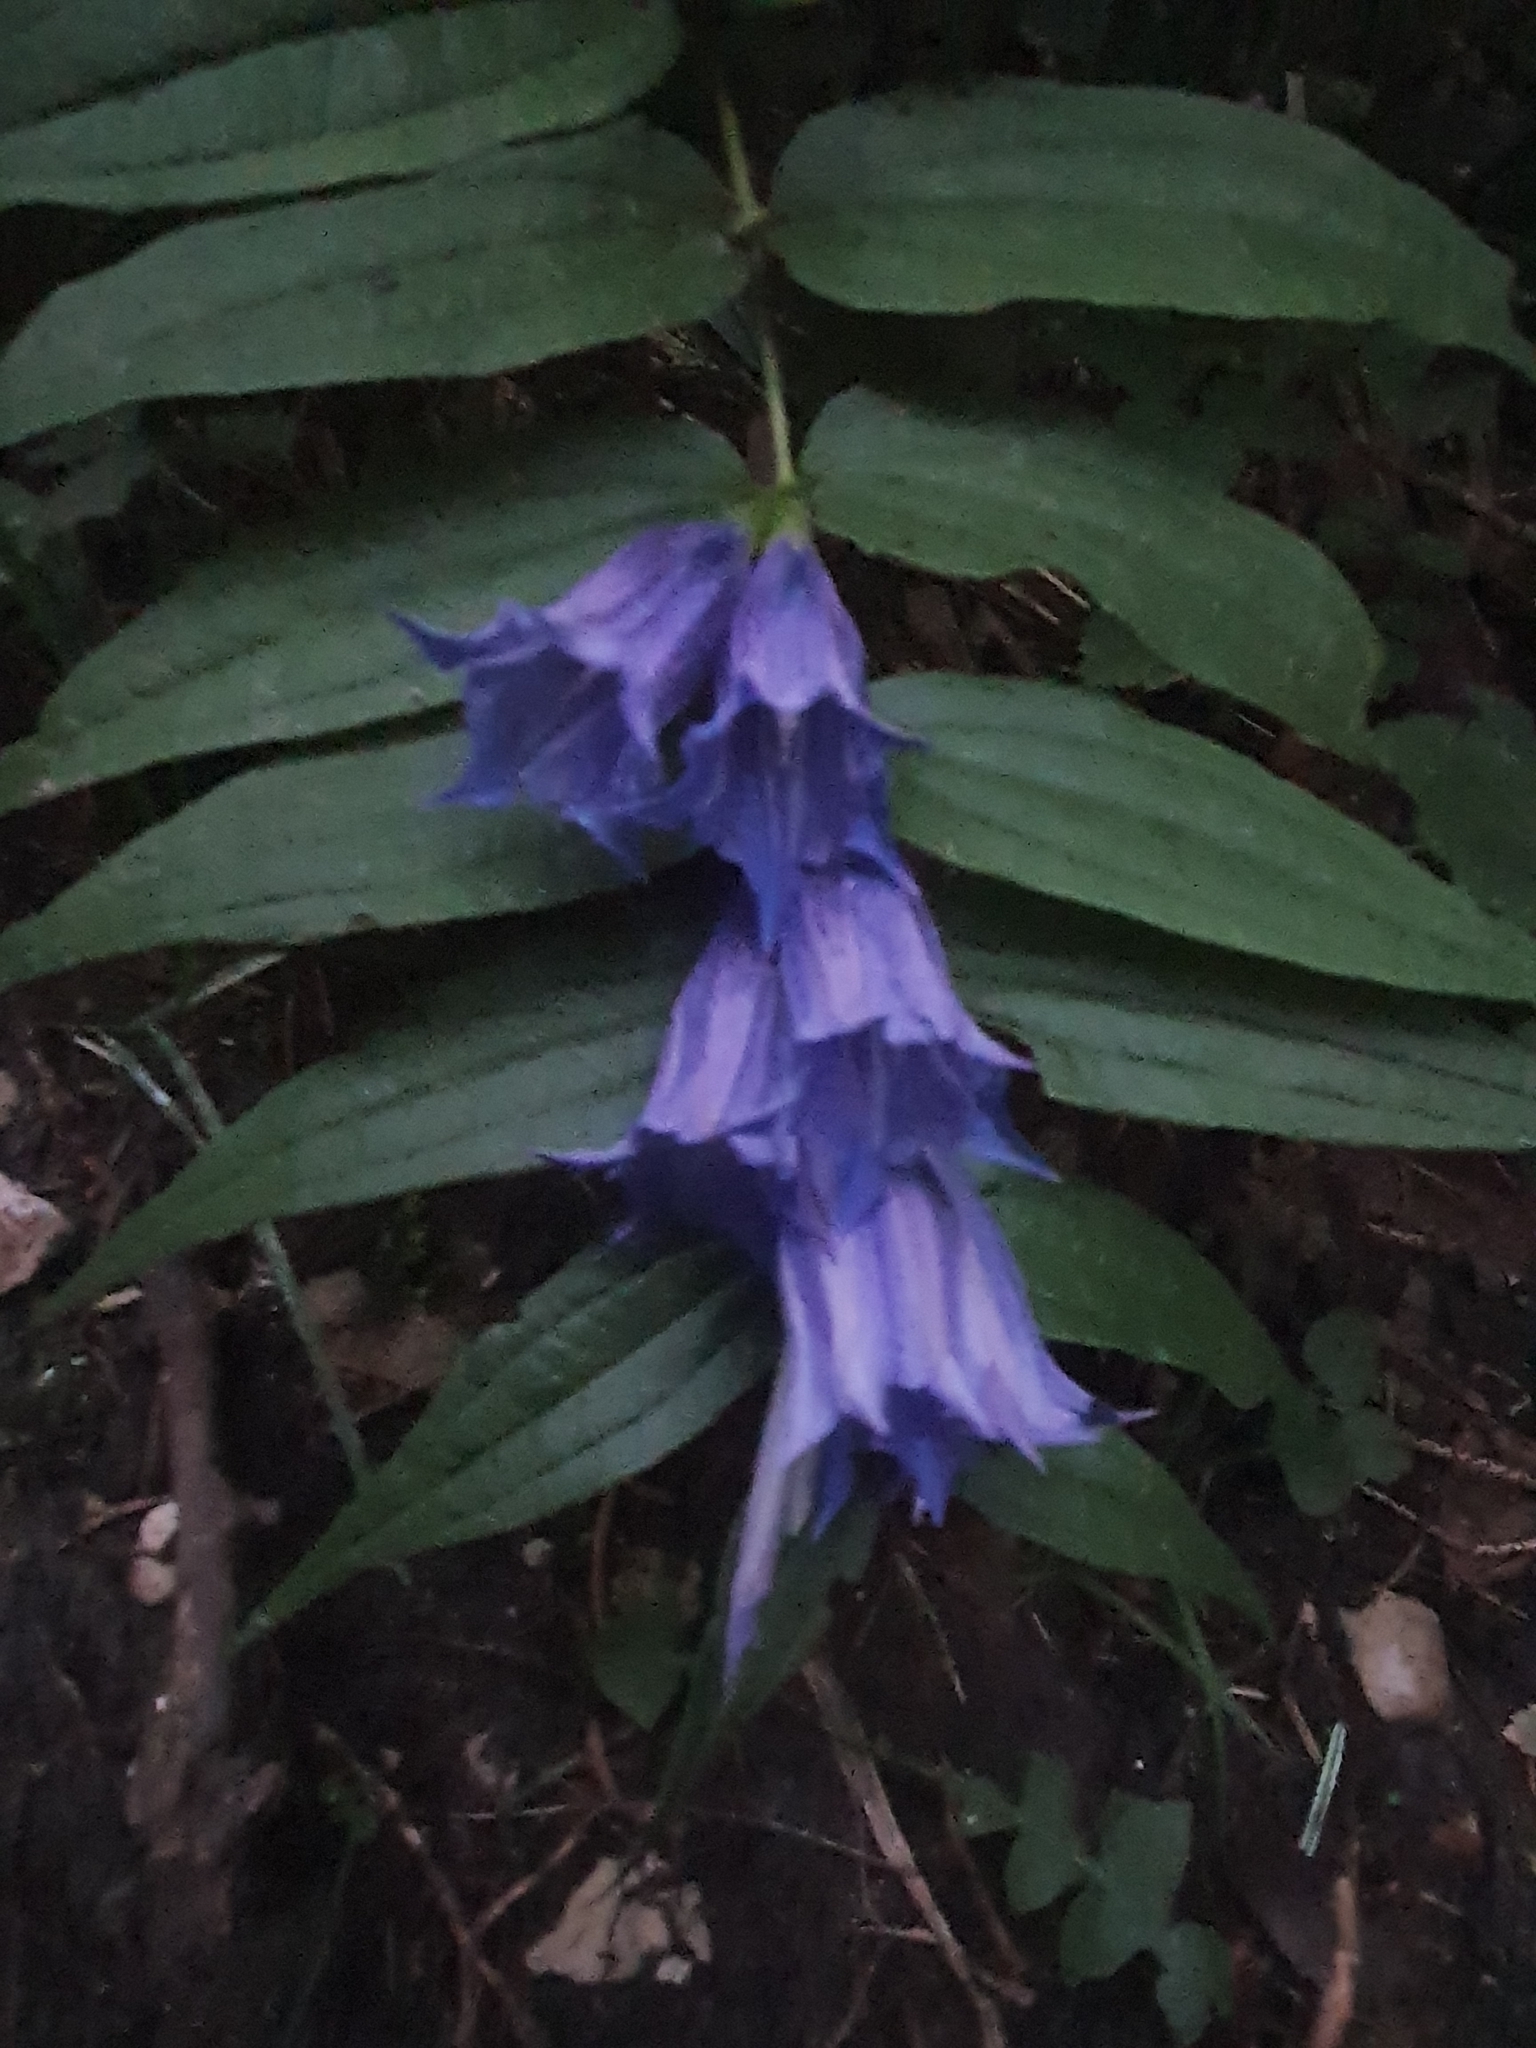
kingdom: Plantae
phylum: Tracheophyta
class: Magnoliopsida
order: Gentianales
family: Gentianaceae
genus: Gentiana
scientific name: Gentiana asclepiadea
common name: Willow gentian
